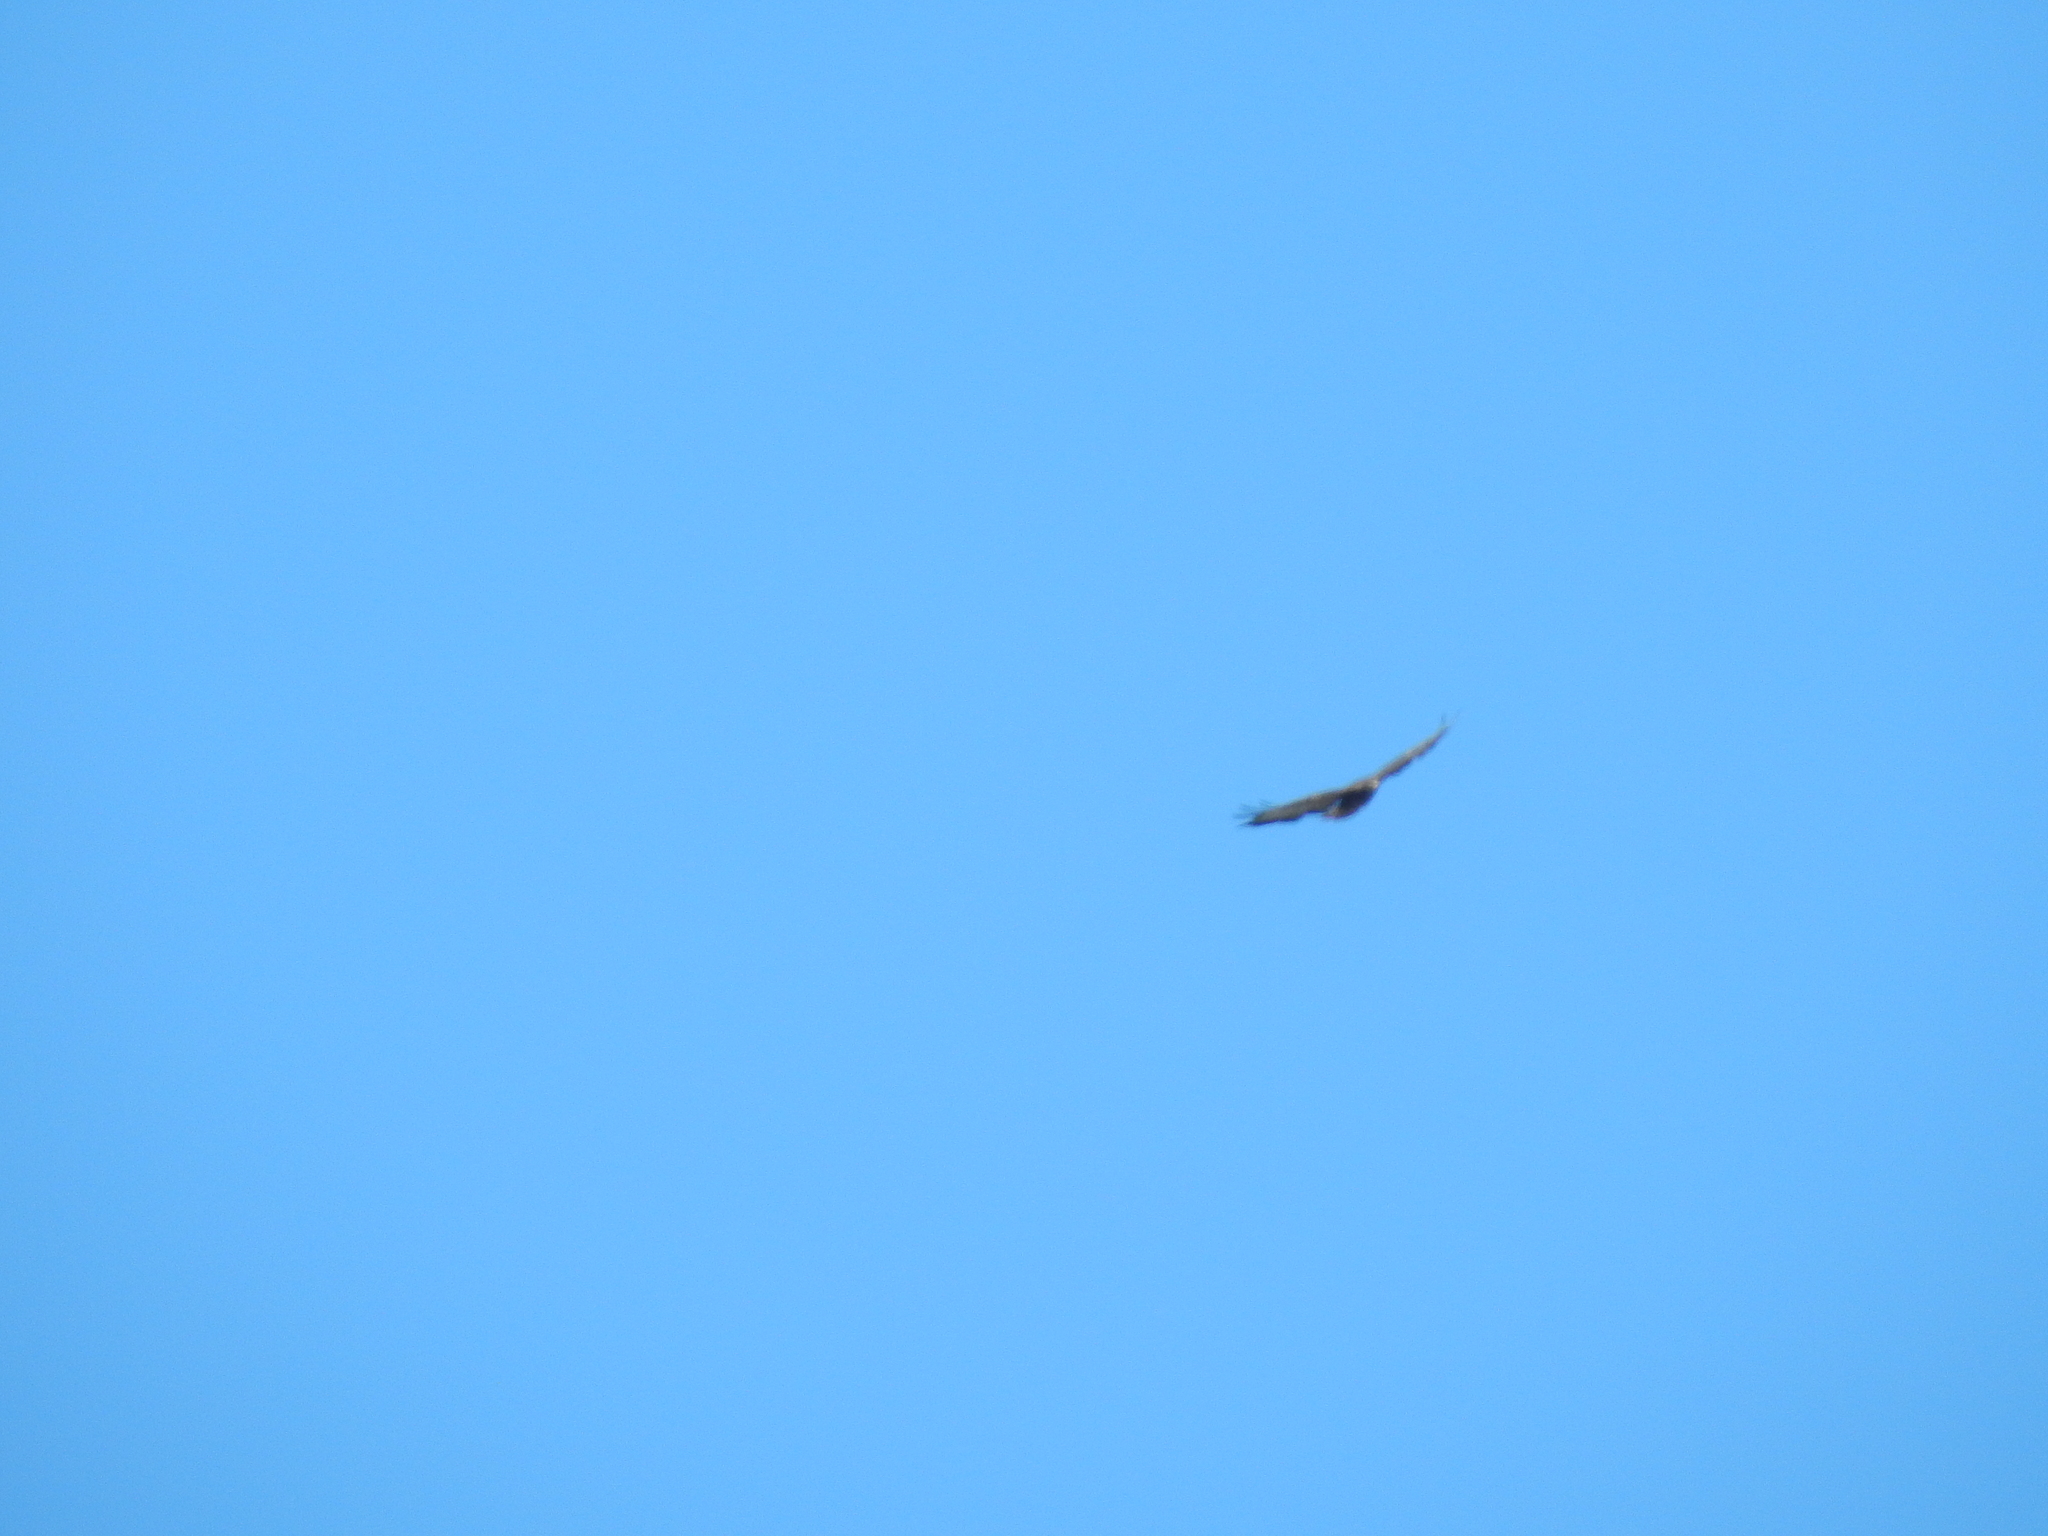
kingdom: Animalia
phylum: Chordata
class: Aves
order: Accipitriformes
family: Accipitridae
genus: Buteo
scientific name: Buteo buteo
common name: Common buzzard
